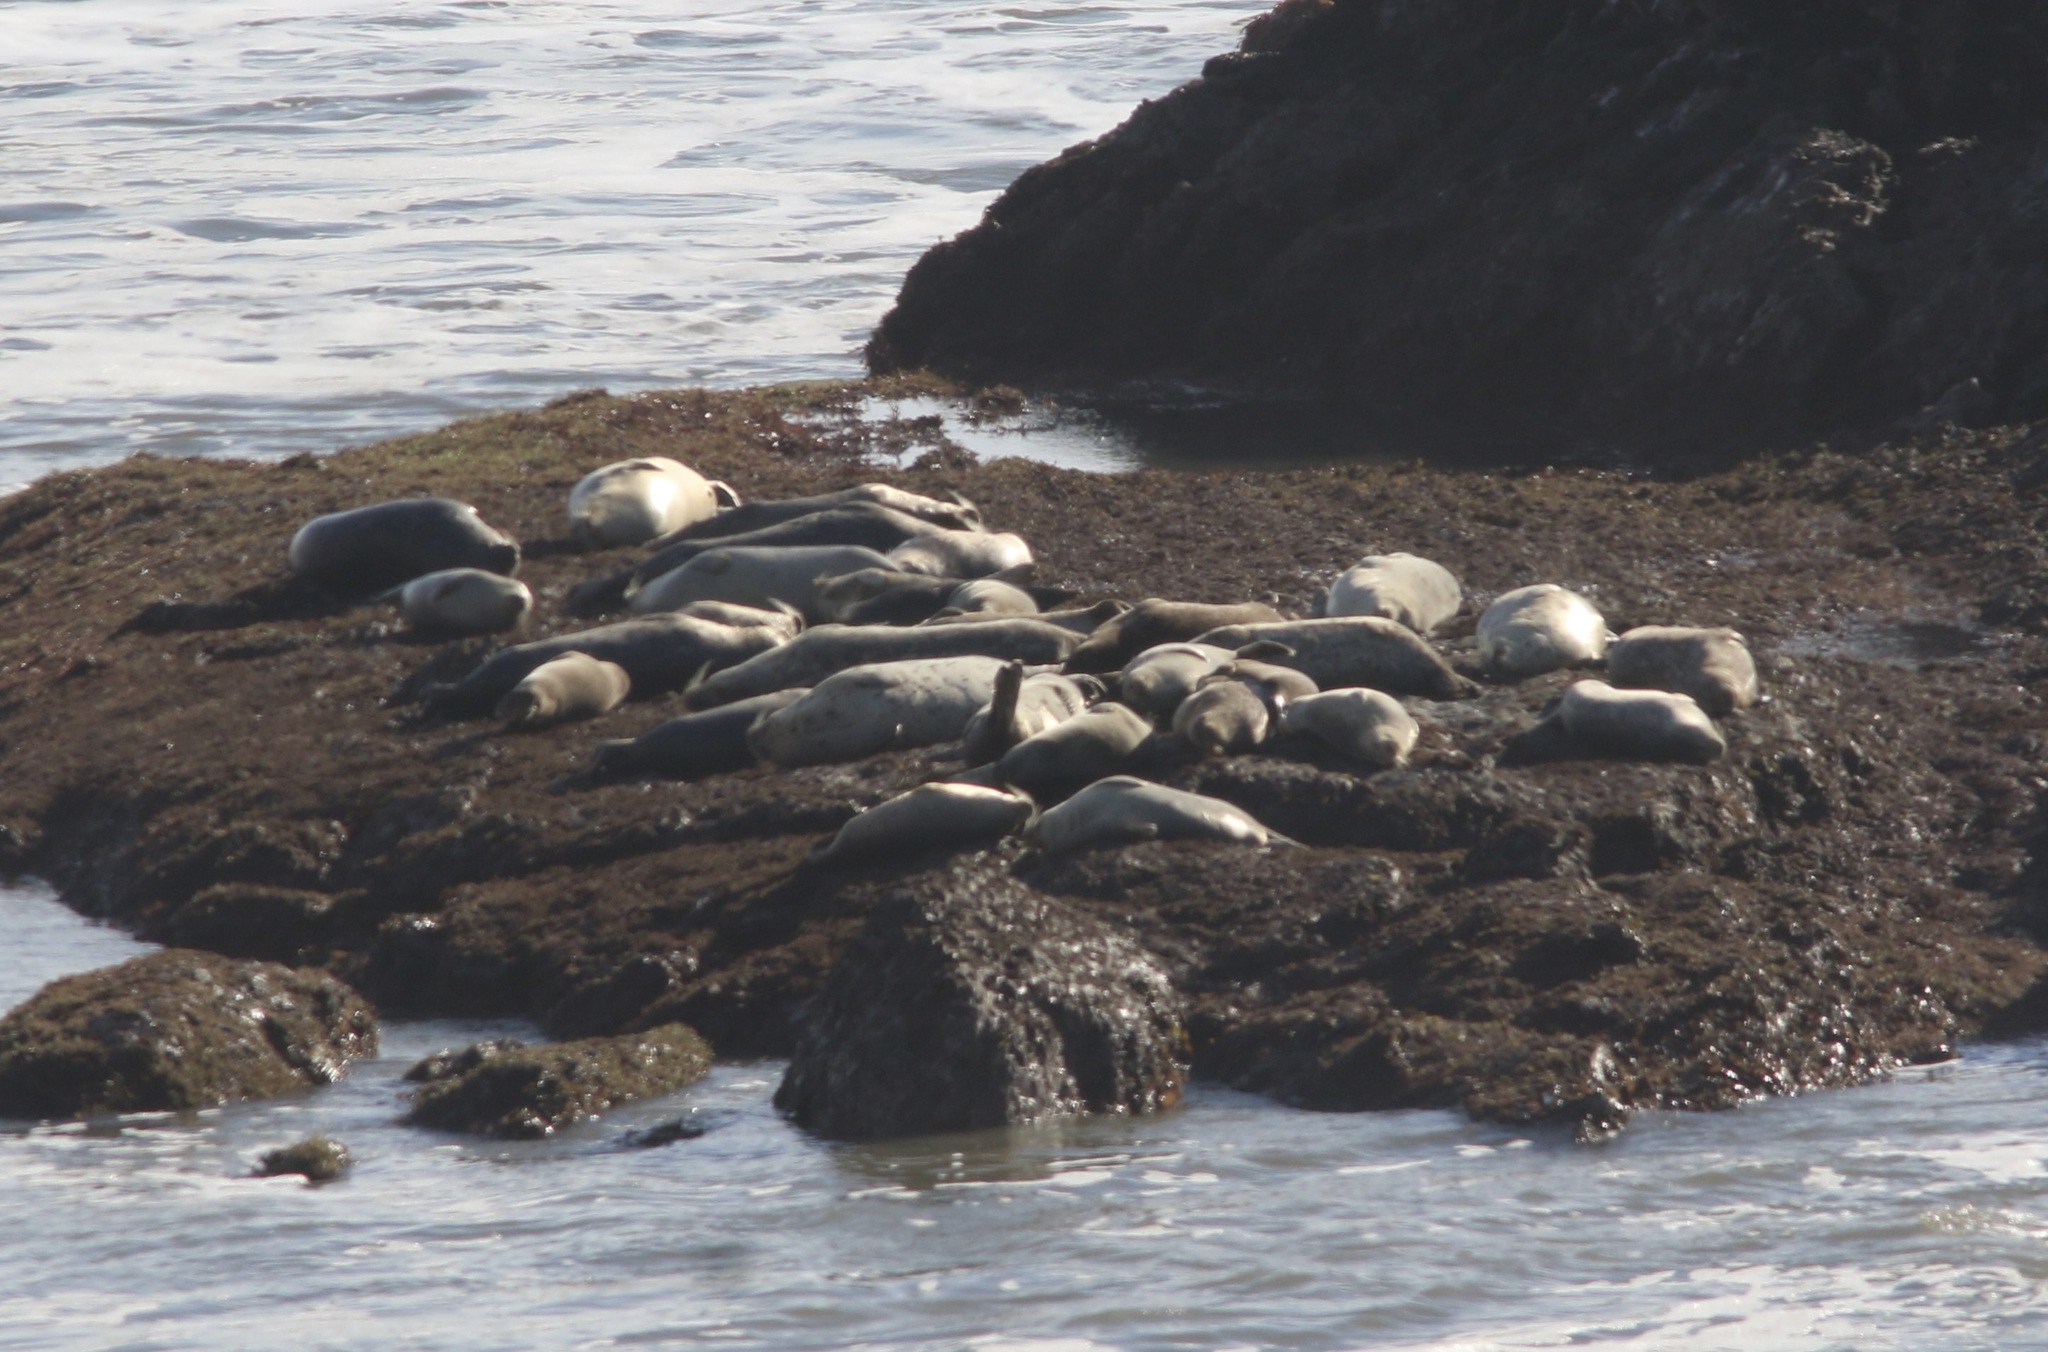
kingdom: Animalia
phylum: Chordata
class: Mammalia
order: Carnivora
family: Phocidae
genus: Phoca
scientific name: Phoca vitulina
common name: Harbor seal
